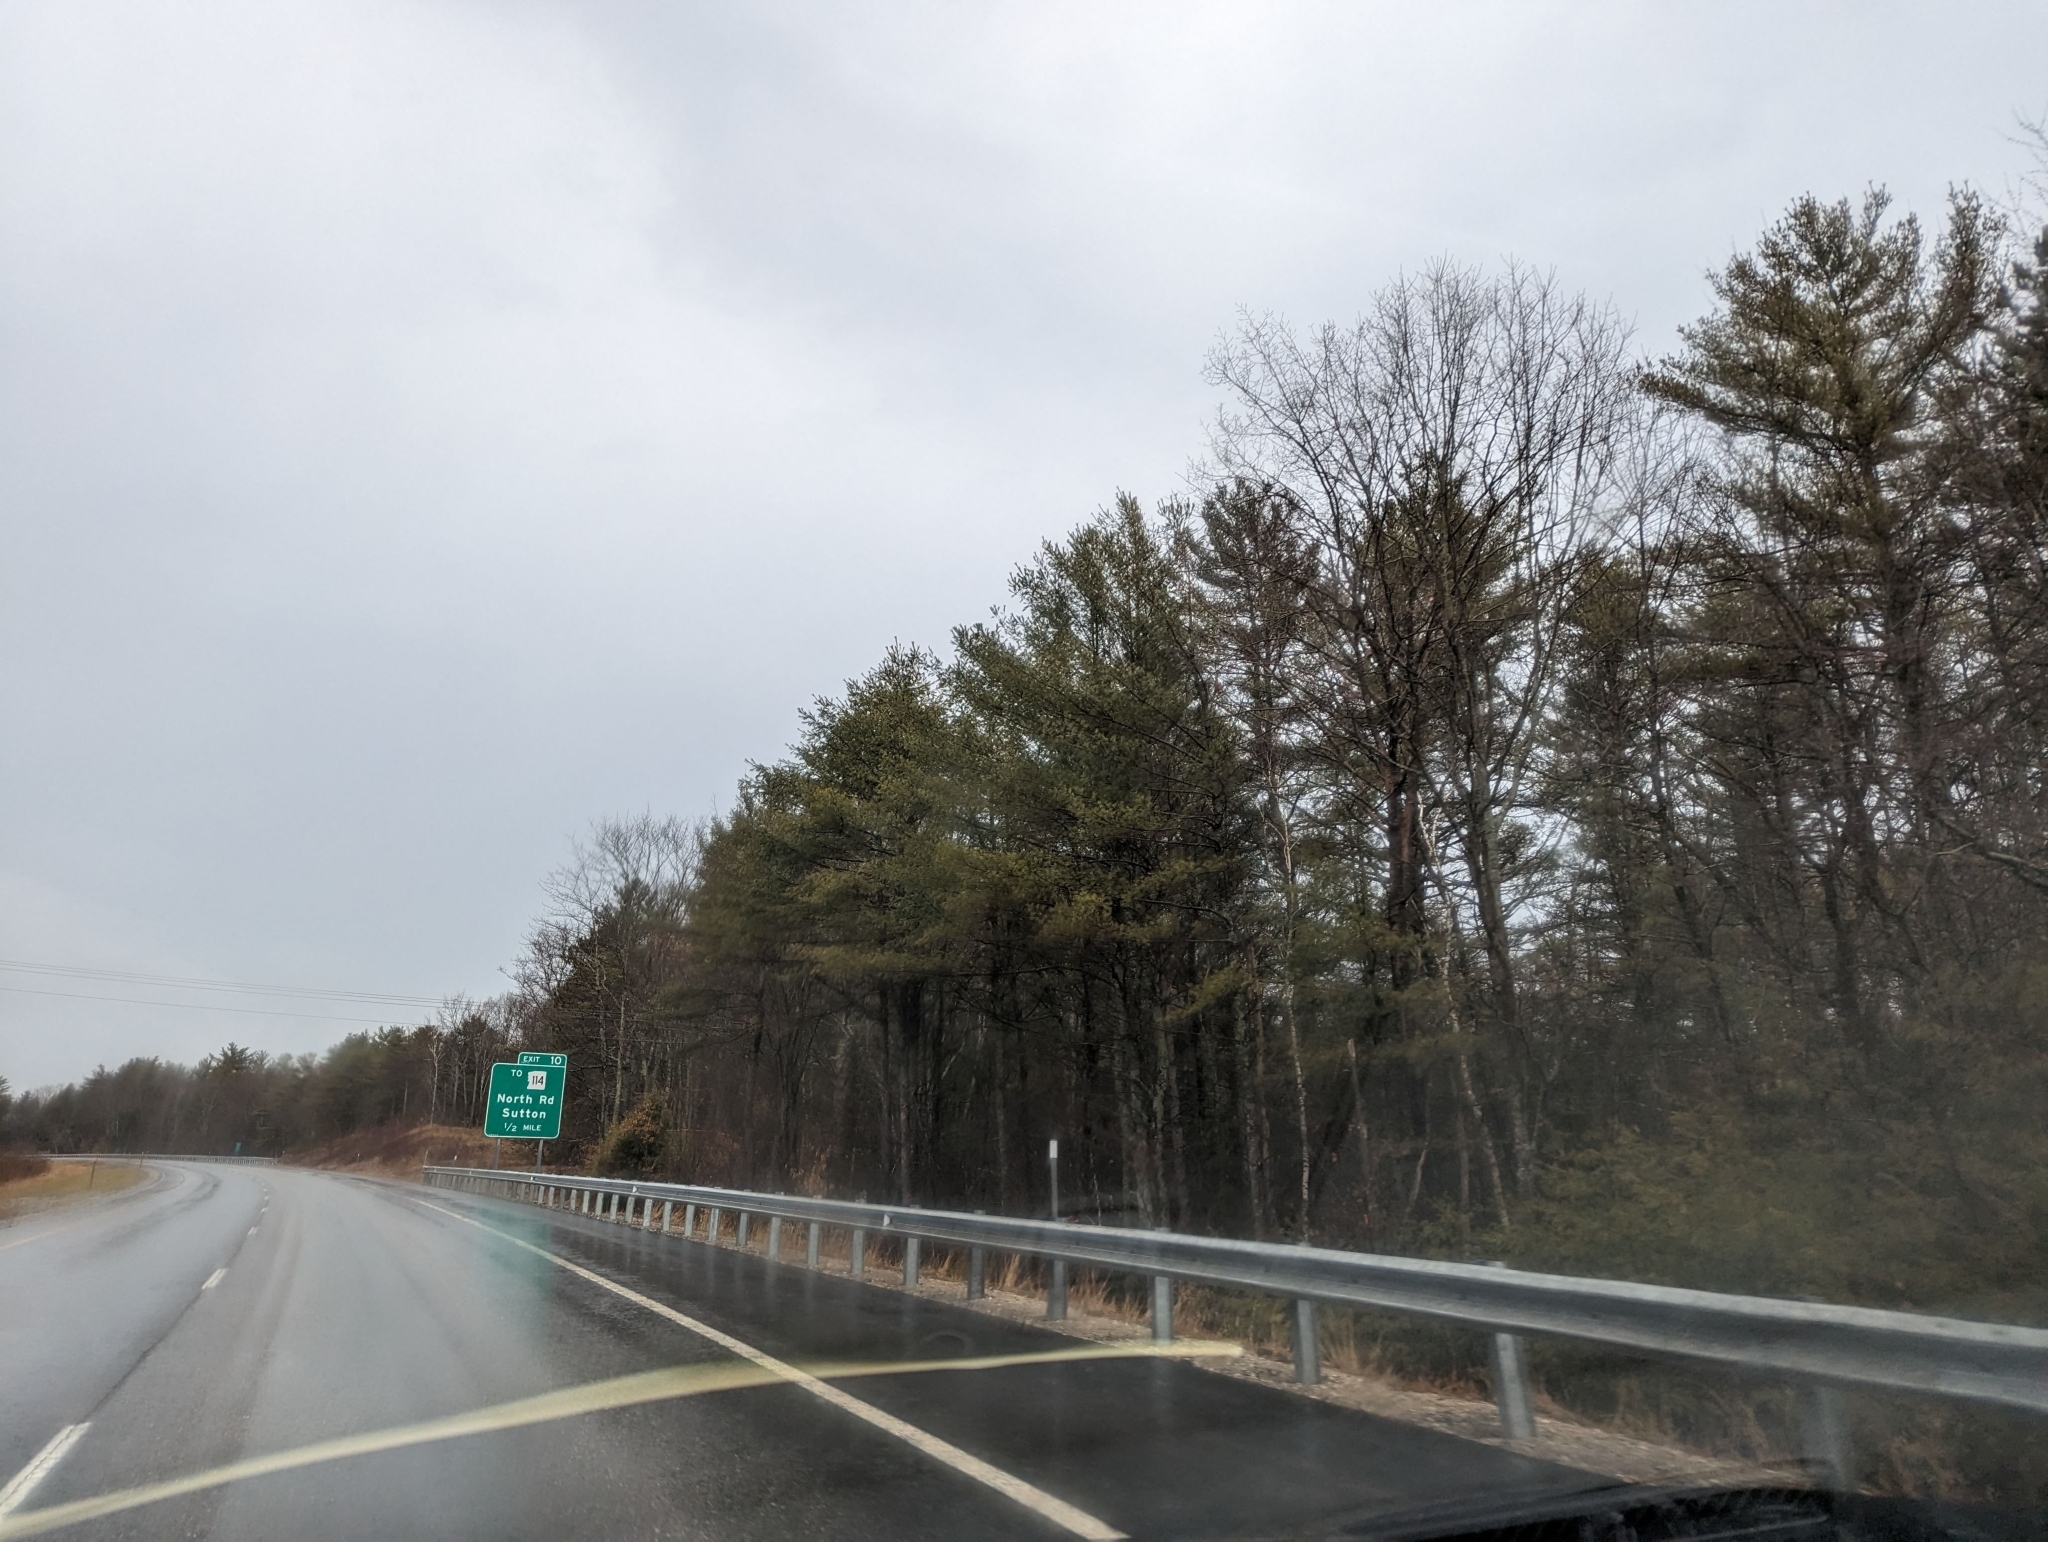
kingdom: Plantae
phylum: Tracheophyta
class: Pinopsida
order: Pinales
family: Pinaceae
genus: Pinus
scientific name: Pinus strobus
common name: Weymouth pine
